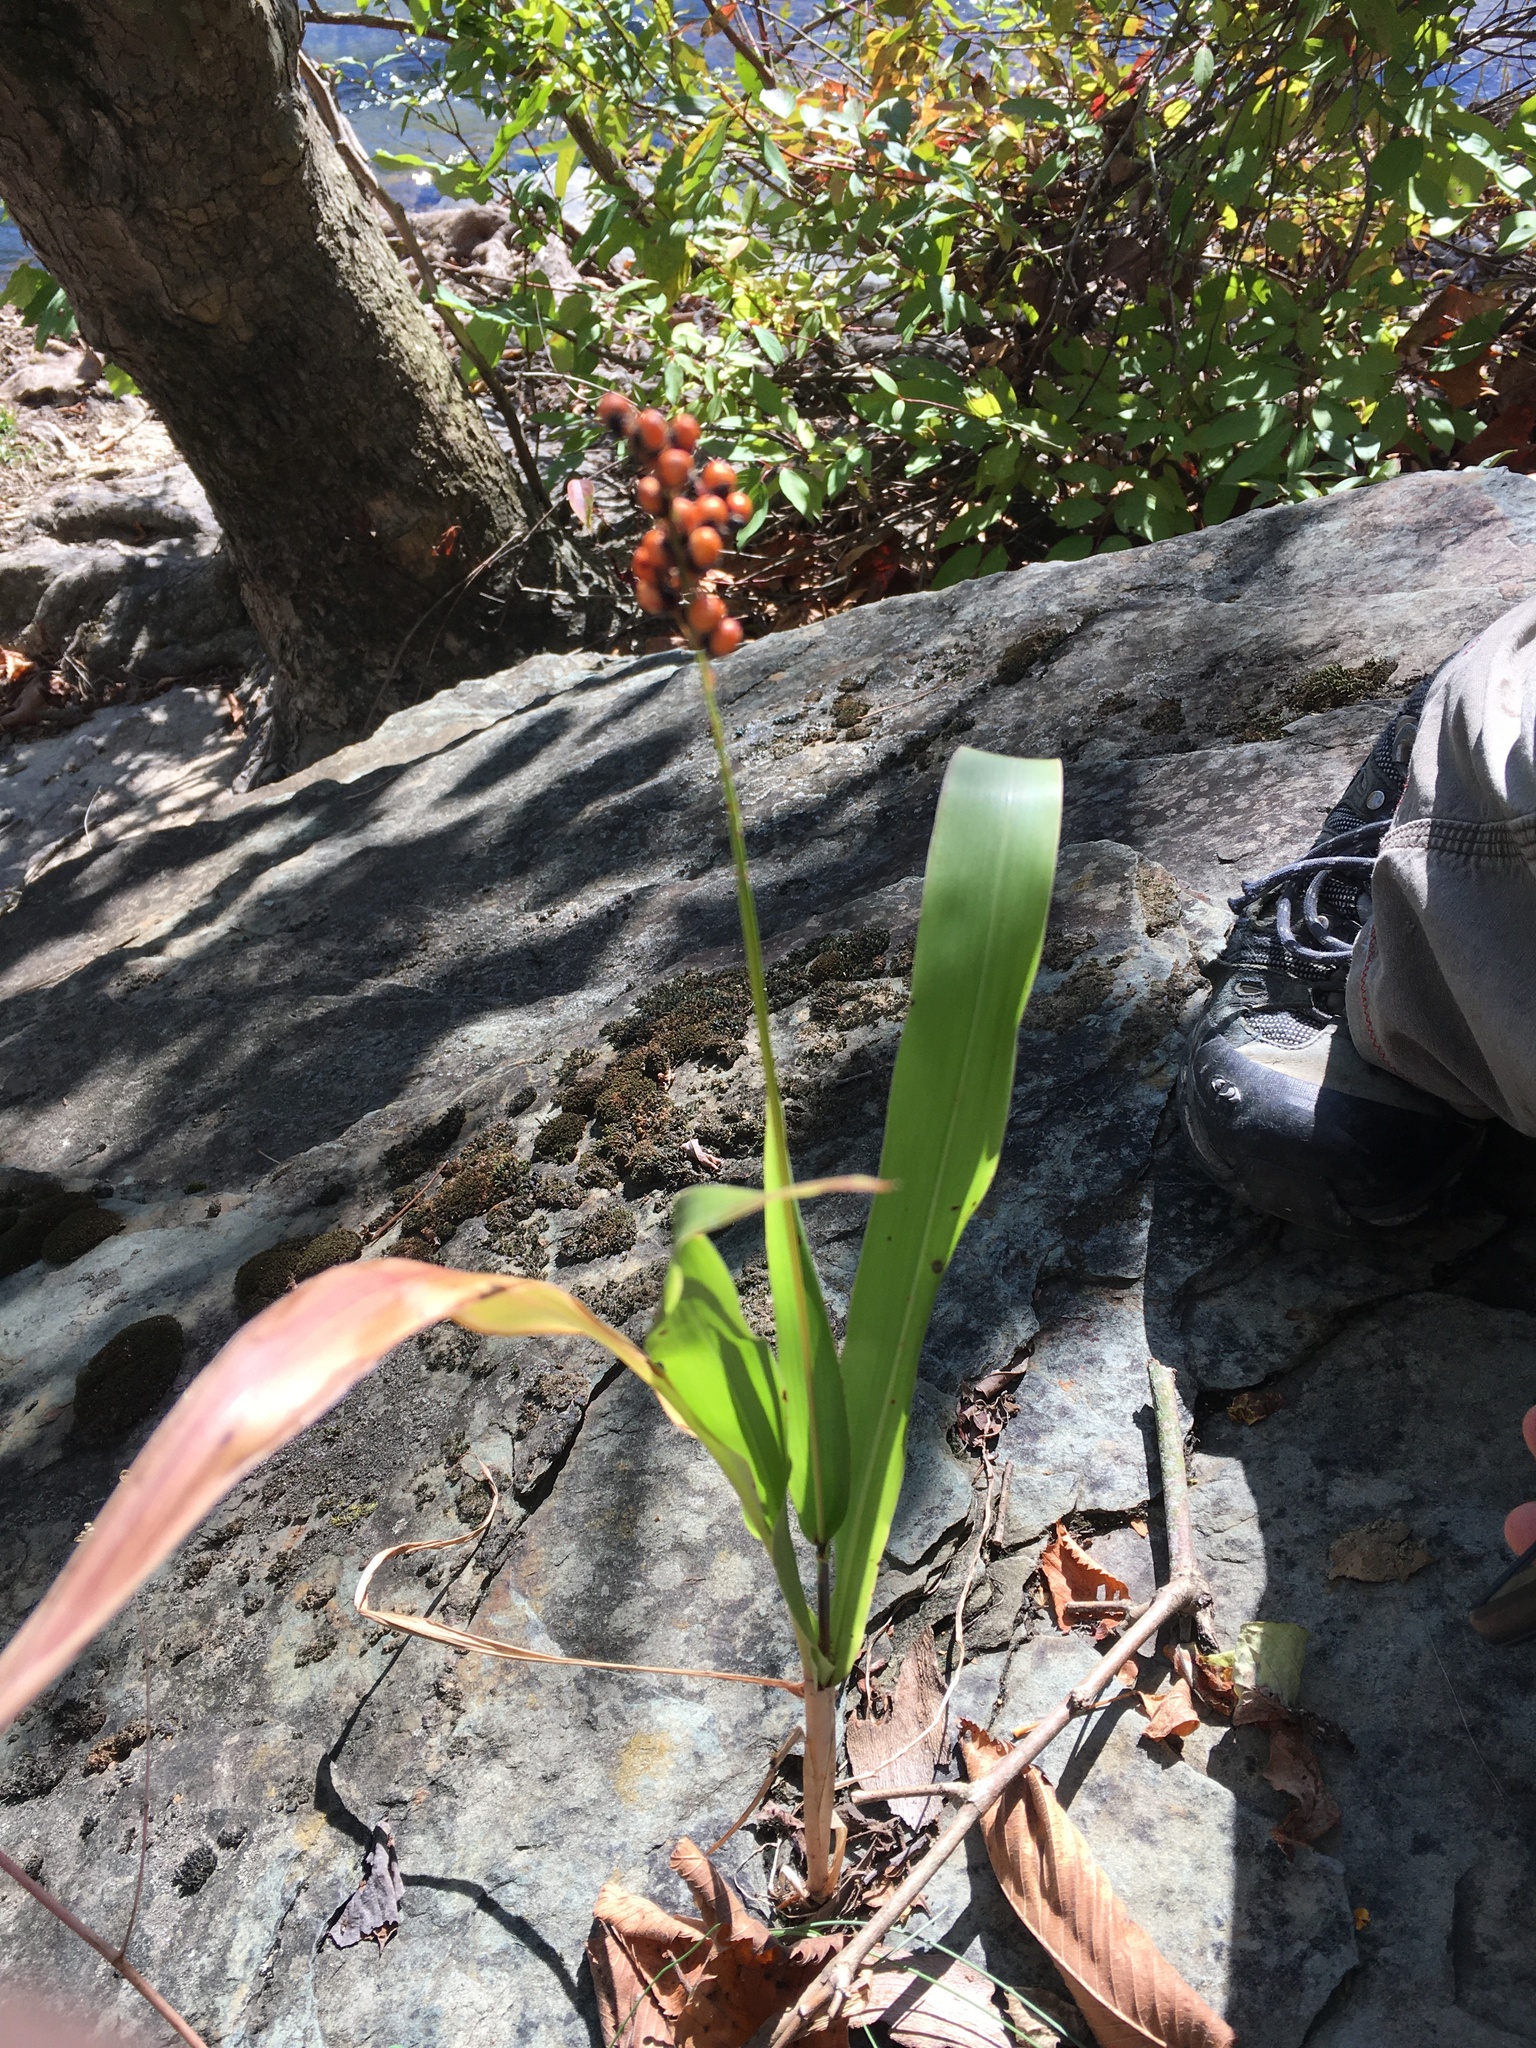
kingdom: Plantae
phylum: Tracheophyta
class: Liliopsida
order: Poales
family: Poaceae
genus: Sorghum
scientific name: Sorghum bicolor
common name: Sorghum
